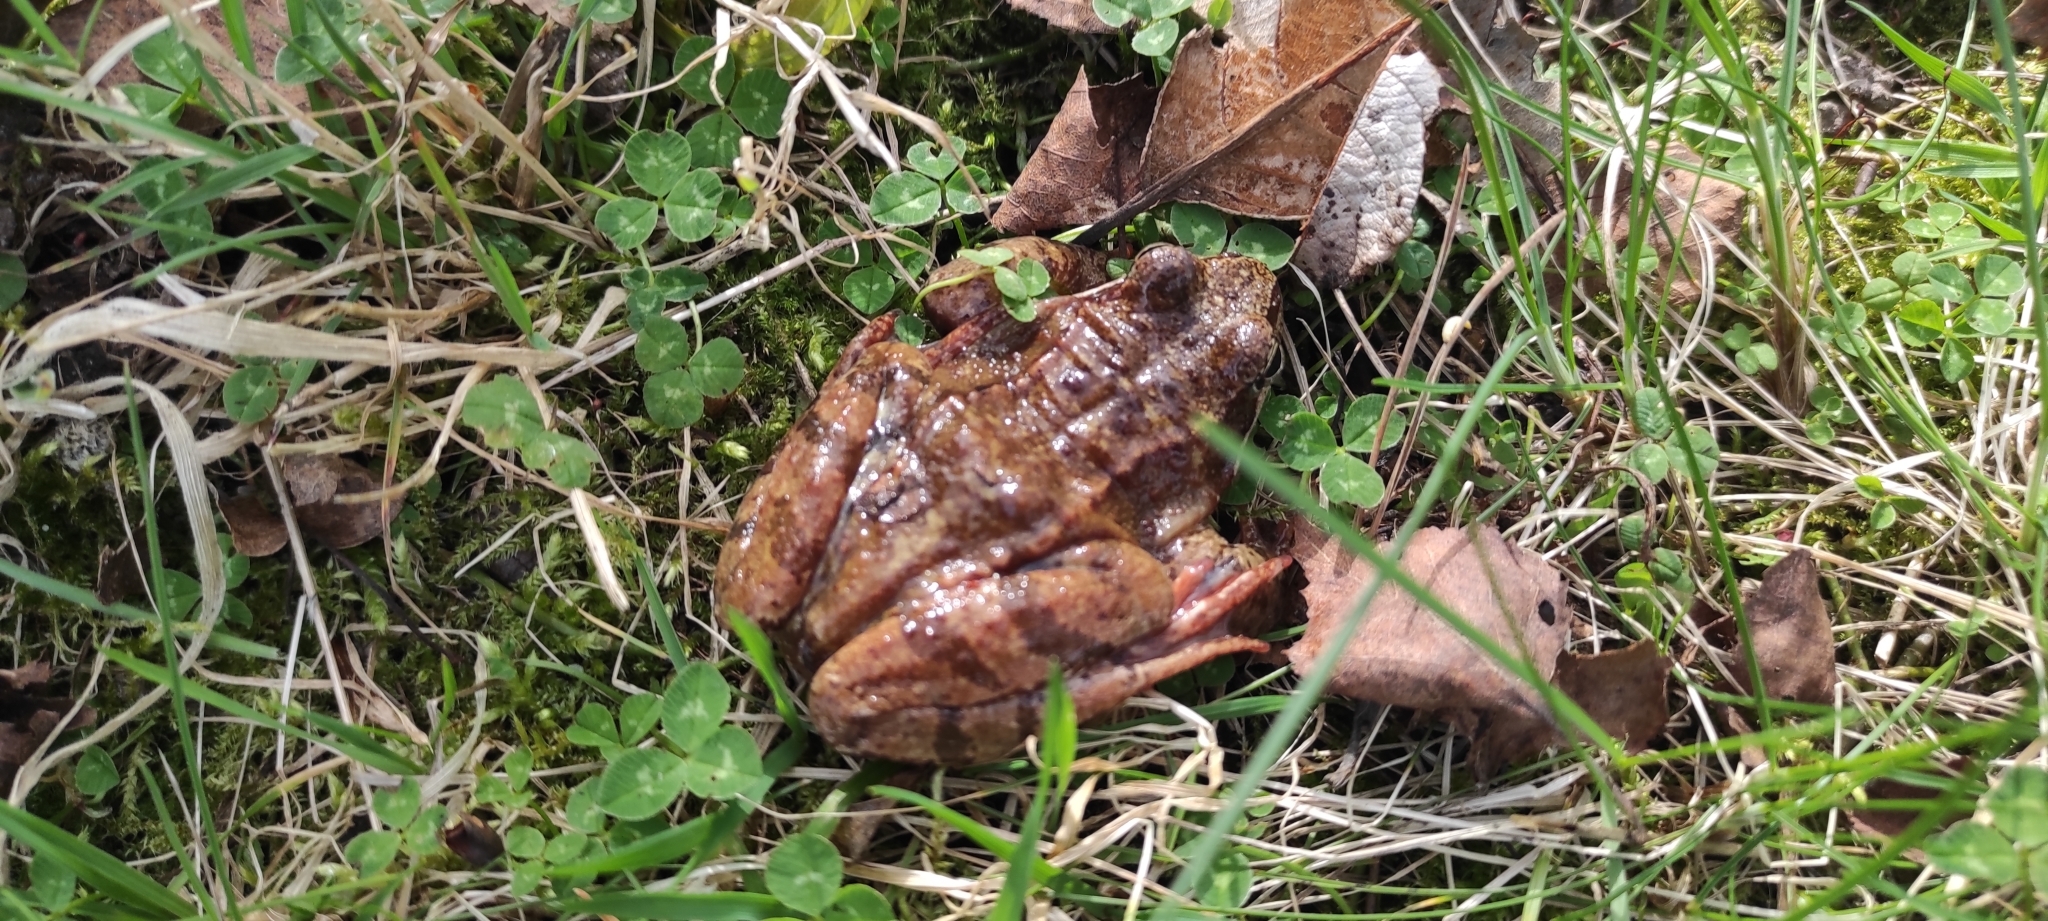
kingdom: Animalia
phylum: Chordata
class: Amphibia
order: Anura
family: Ranidae
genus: Rana
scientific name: Rana temporaria
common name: Common frog
